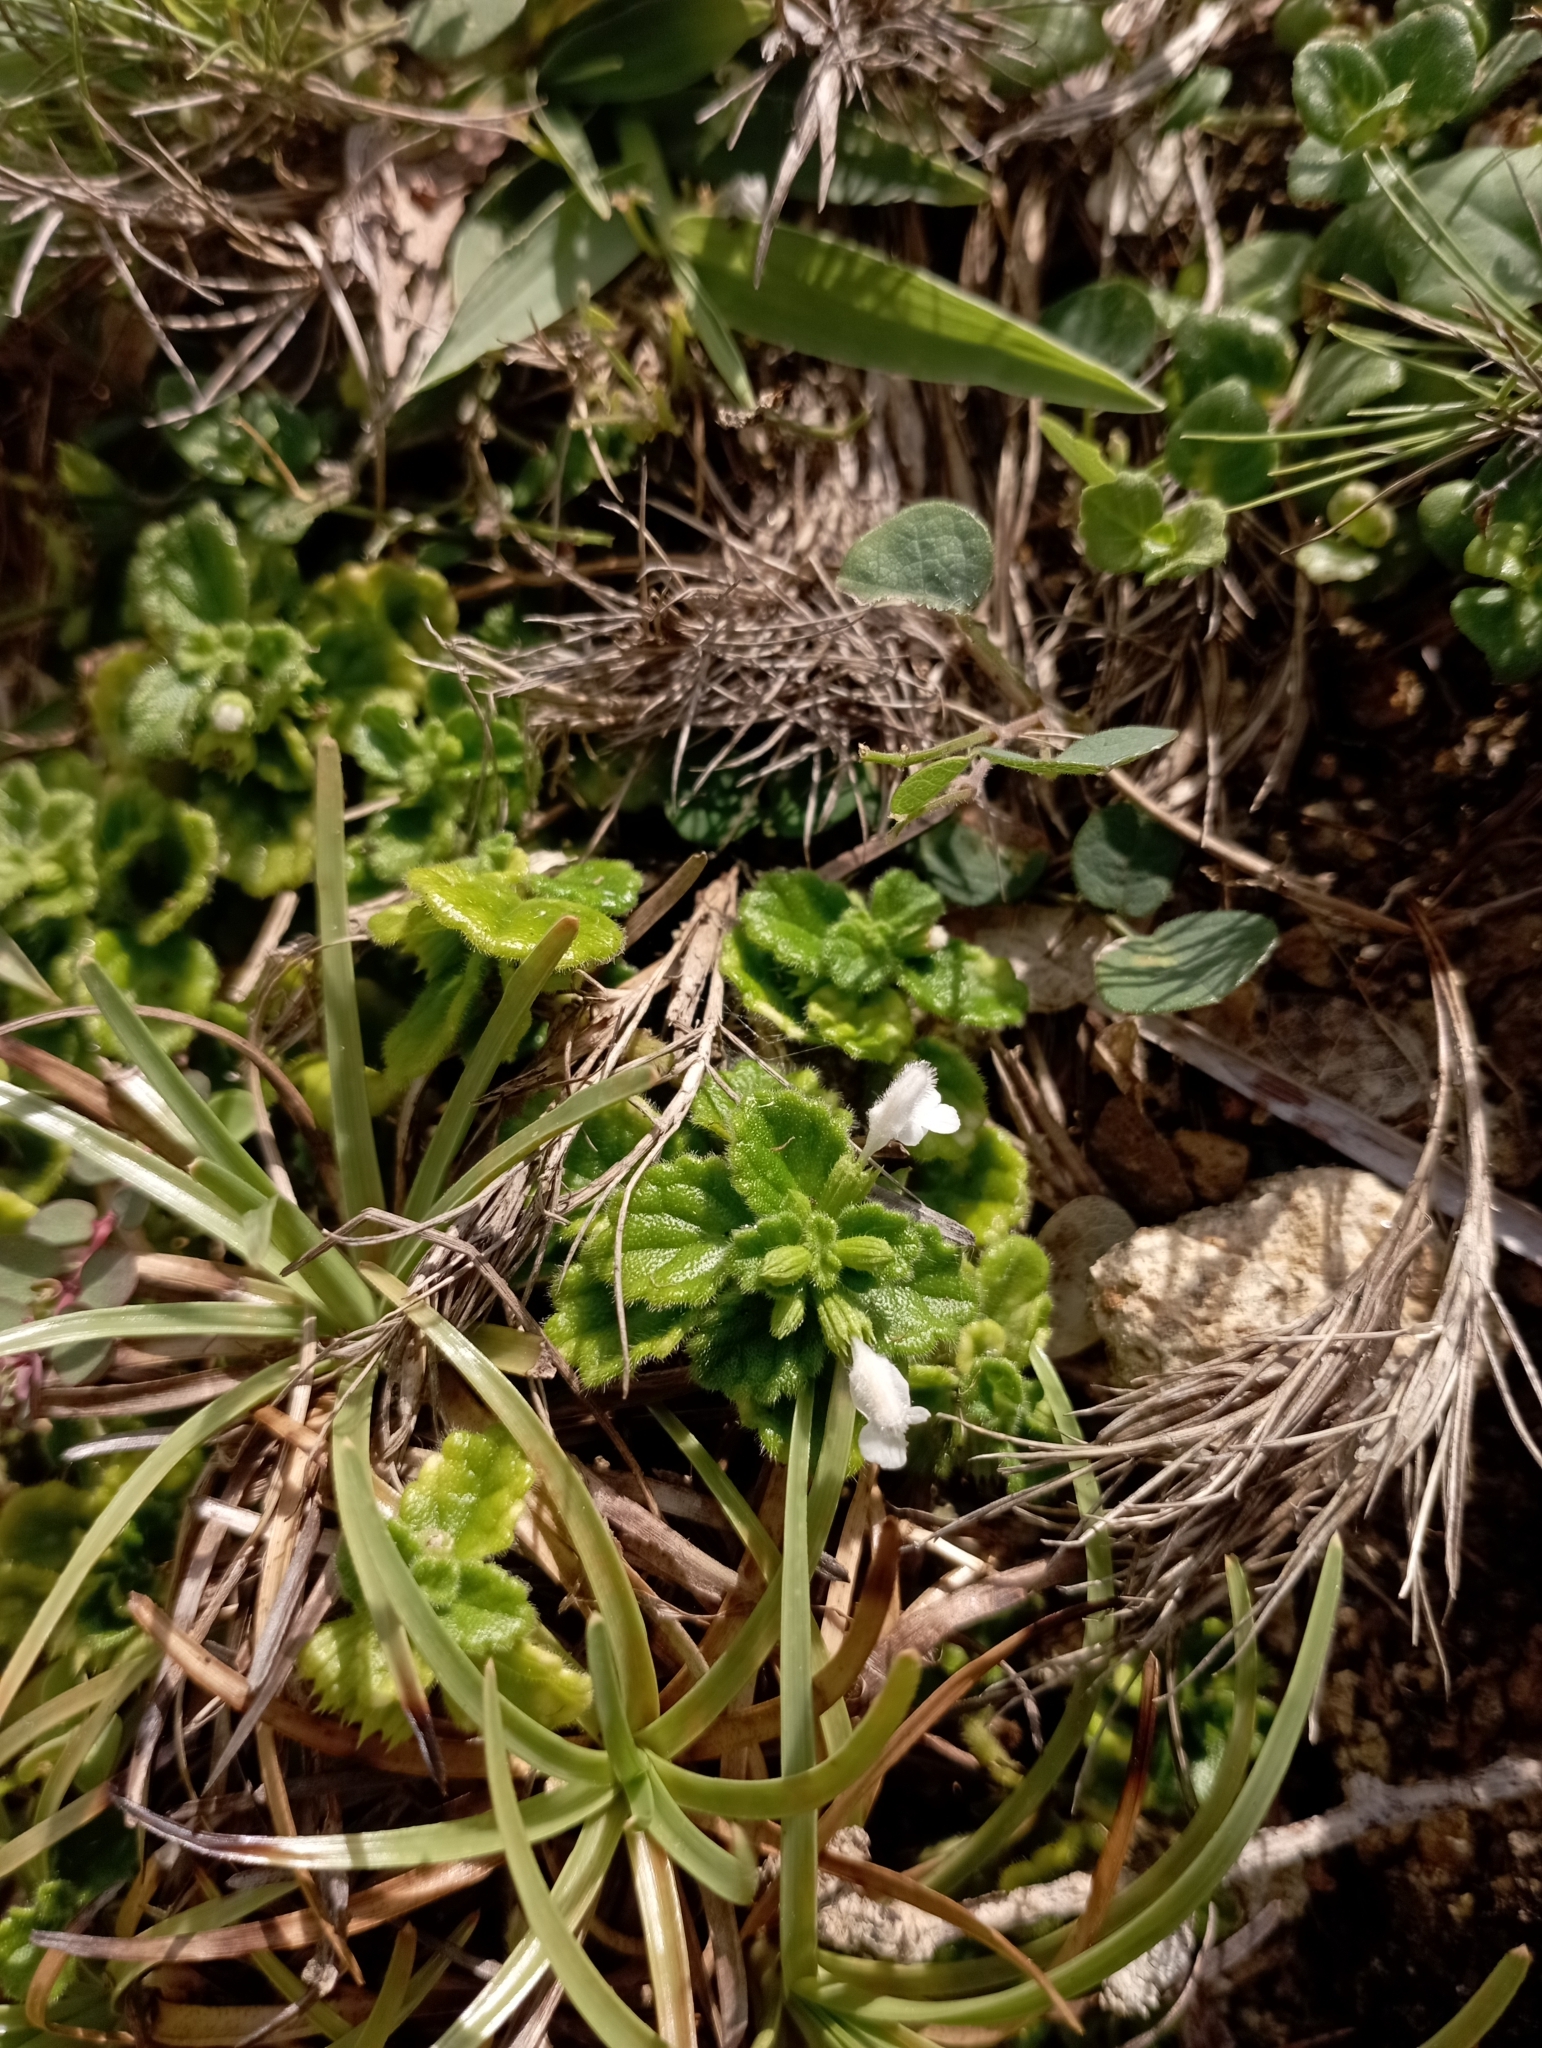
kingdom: Plantae
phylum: Tracheophyta
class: Magnoliopsida
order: Lamiales
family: Lamiaceae
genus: Leucas
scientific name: Leucas chinensis
